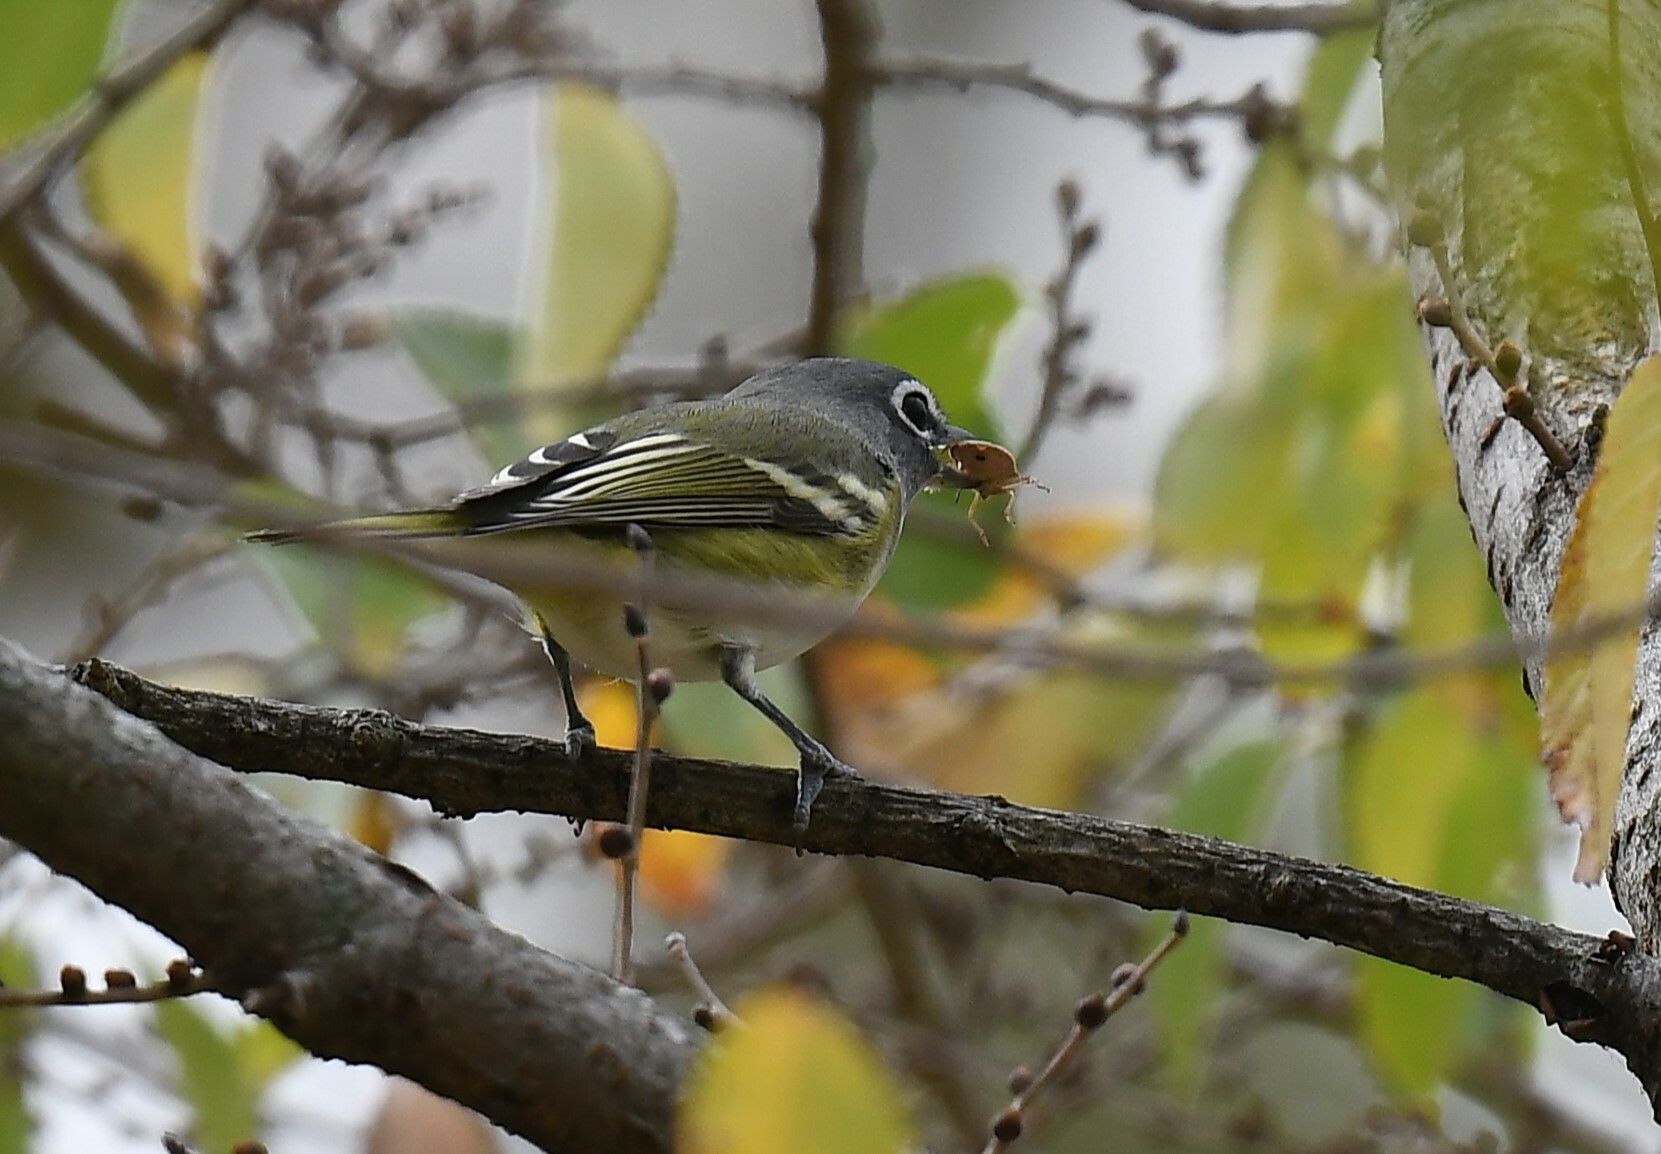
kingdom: Animalia
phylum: Chordata
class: Aves
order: Passeriformes
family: Vireonidae
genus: Vireo
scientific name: Vireo solitarius
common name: Blue-headed vireo
